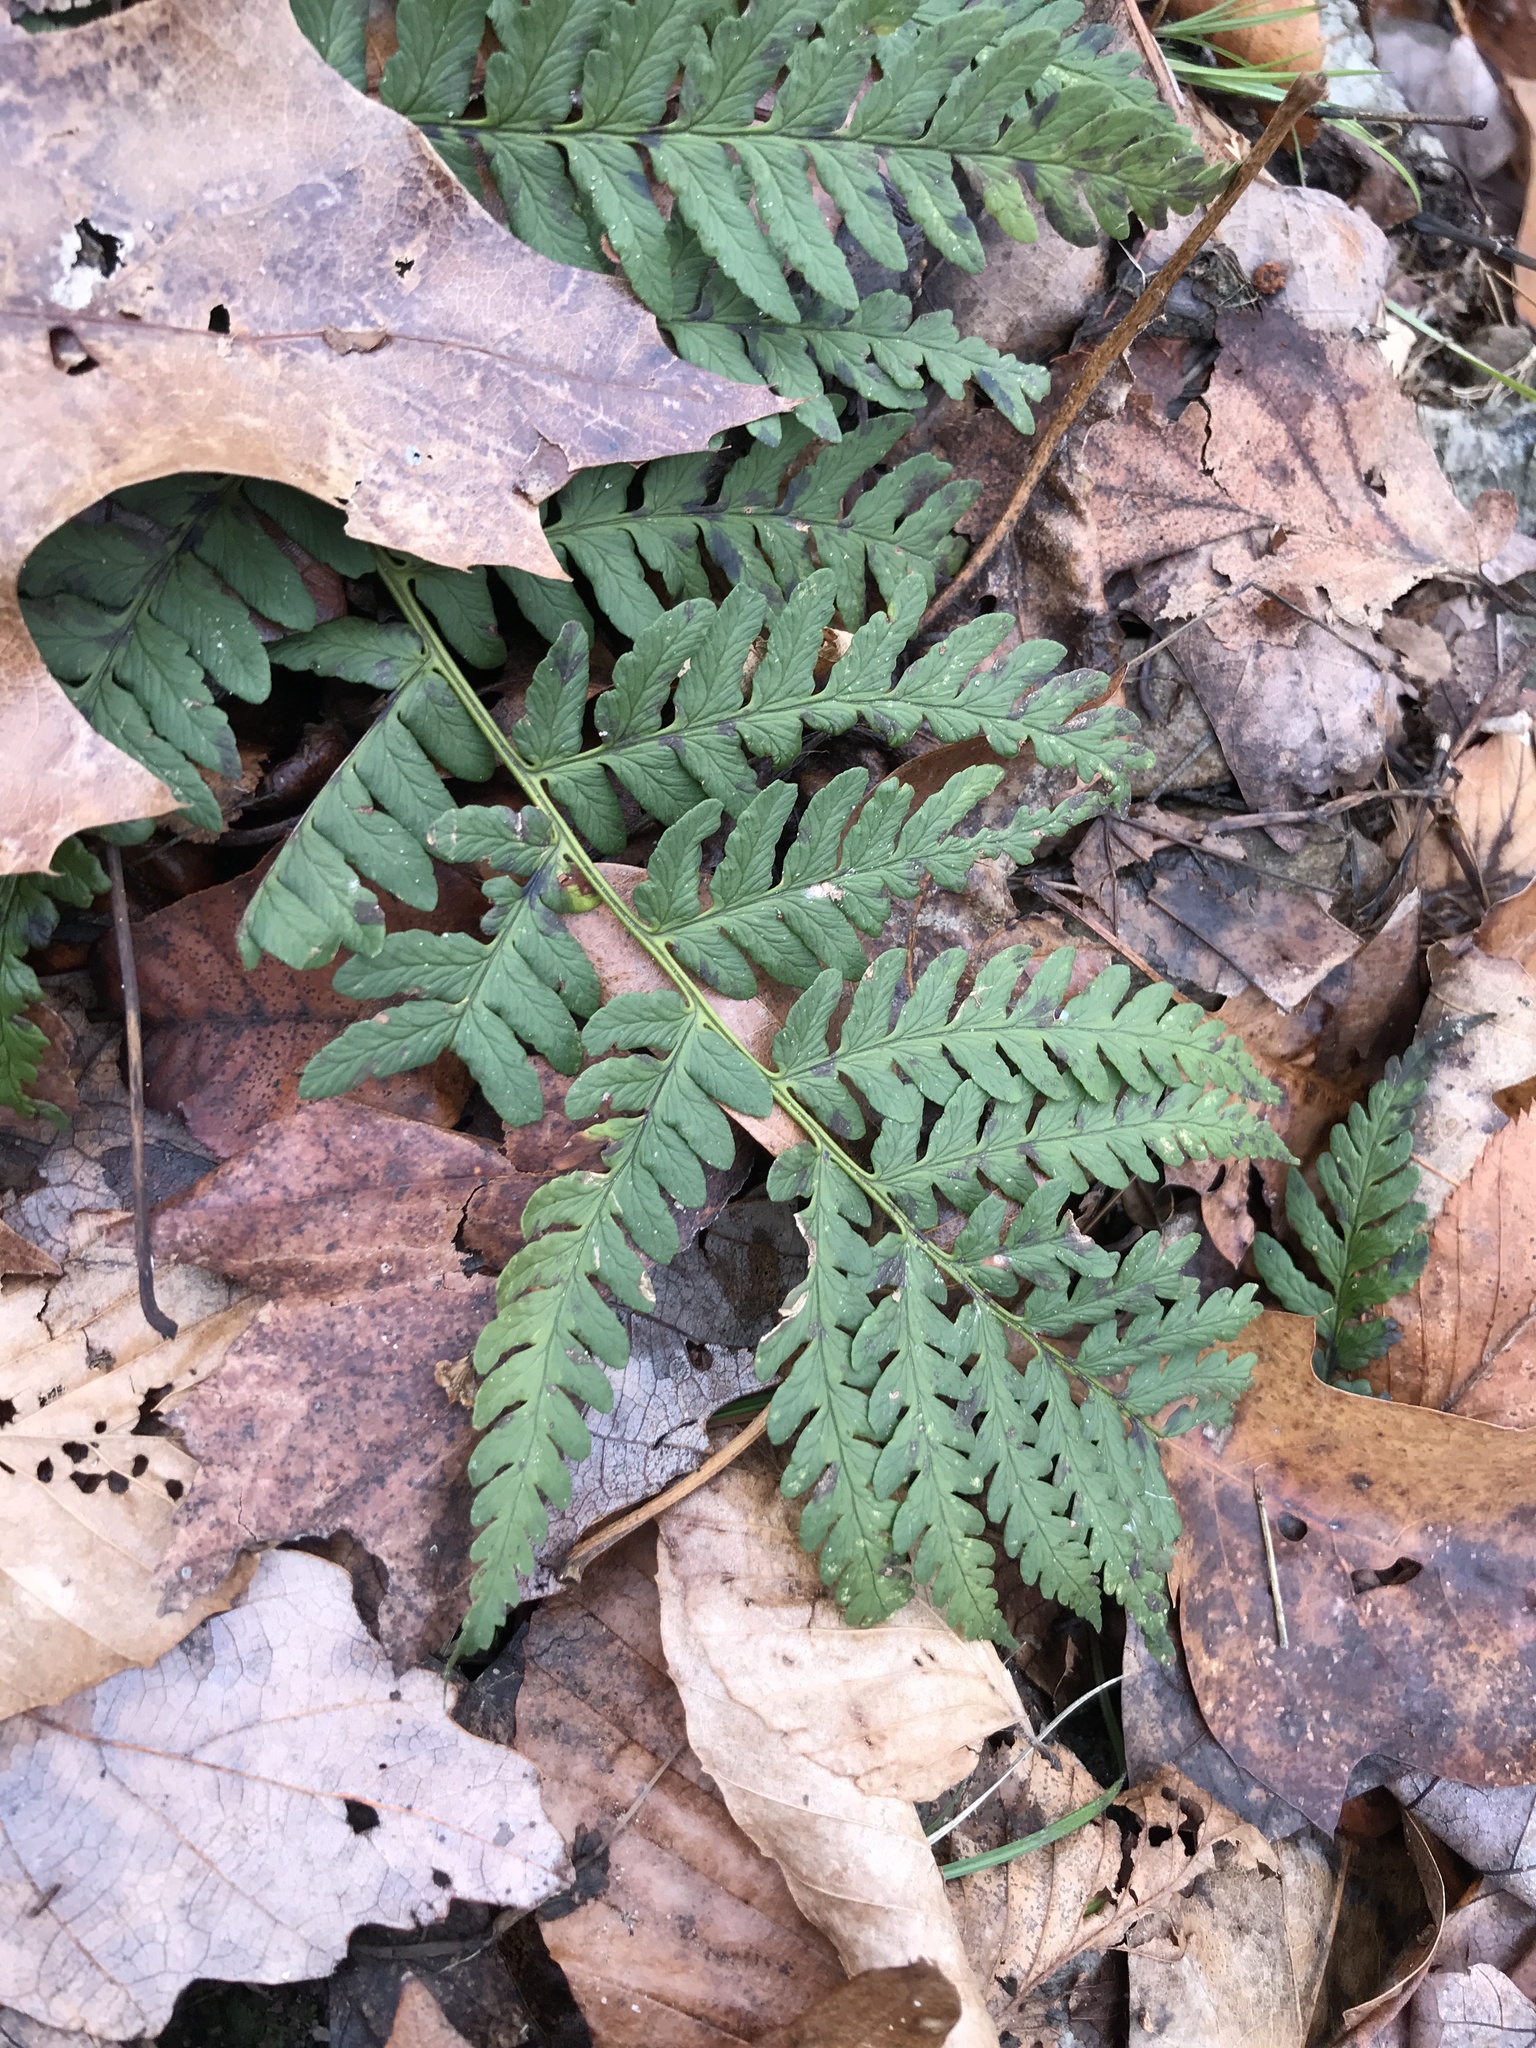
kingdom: Plantae
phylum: Tracheophyta
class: Polypodiopsida
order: Polypodiales
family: Dryopteridaceae
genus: Dryopteris
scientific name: Dryopteris marginalis
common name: Marginal wood fern
